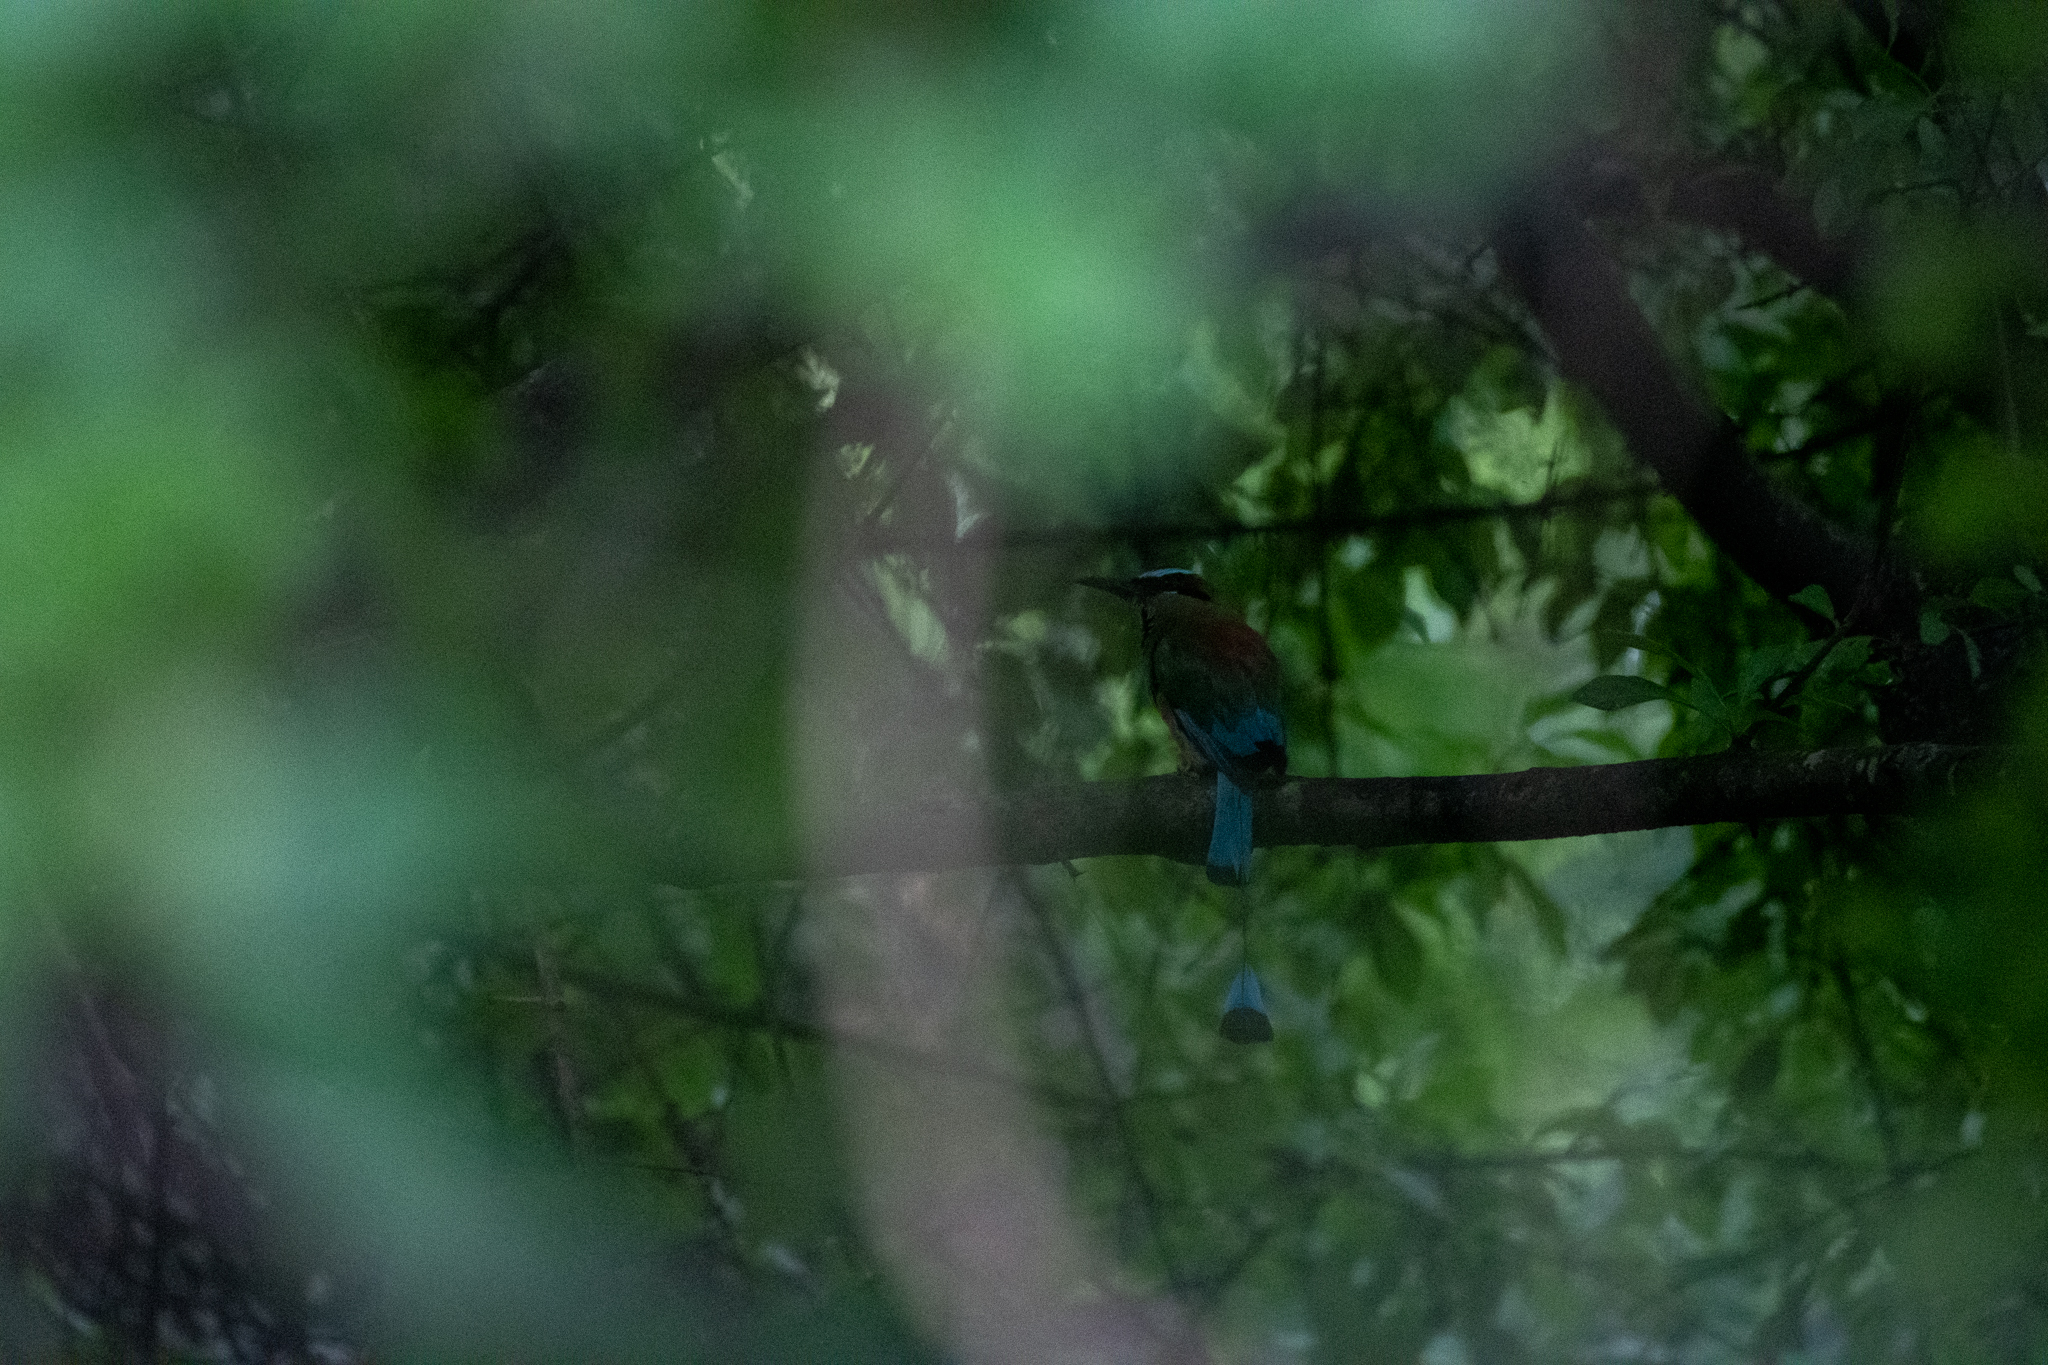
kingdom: Animalia
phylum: Chordata
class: Aves
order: Coraciiformes
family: Momotidae
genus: Eumomota
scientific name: Eumomota superciliosa
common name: Turquoise-browed motmot
